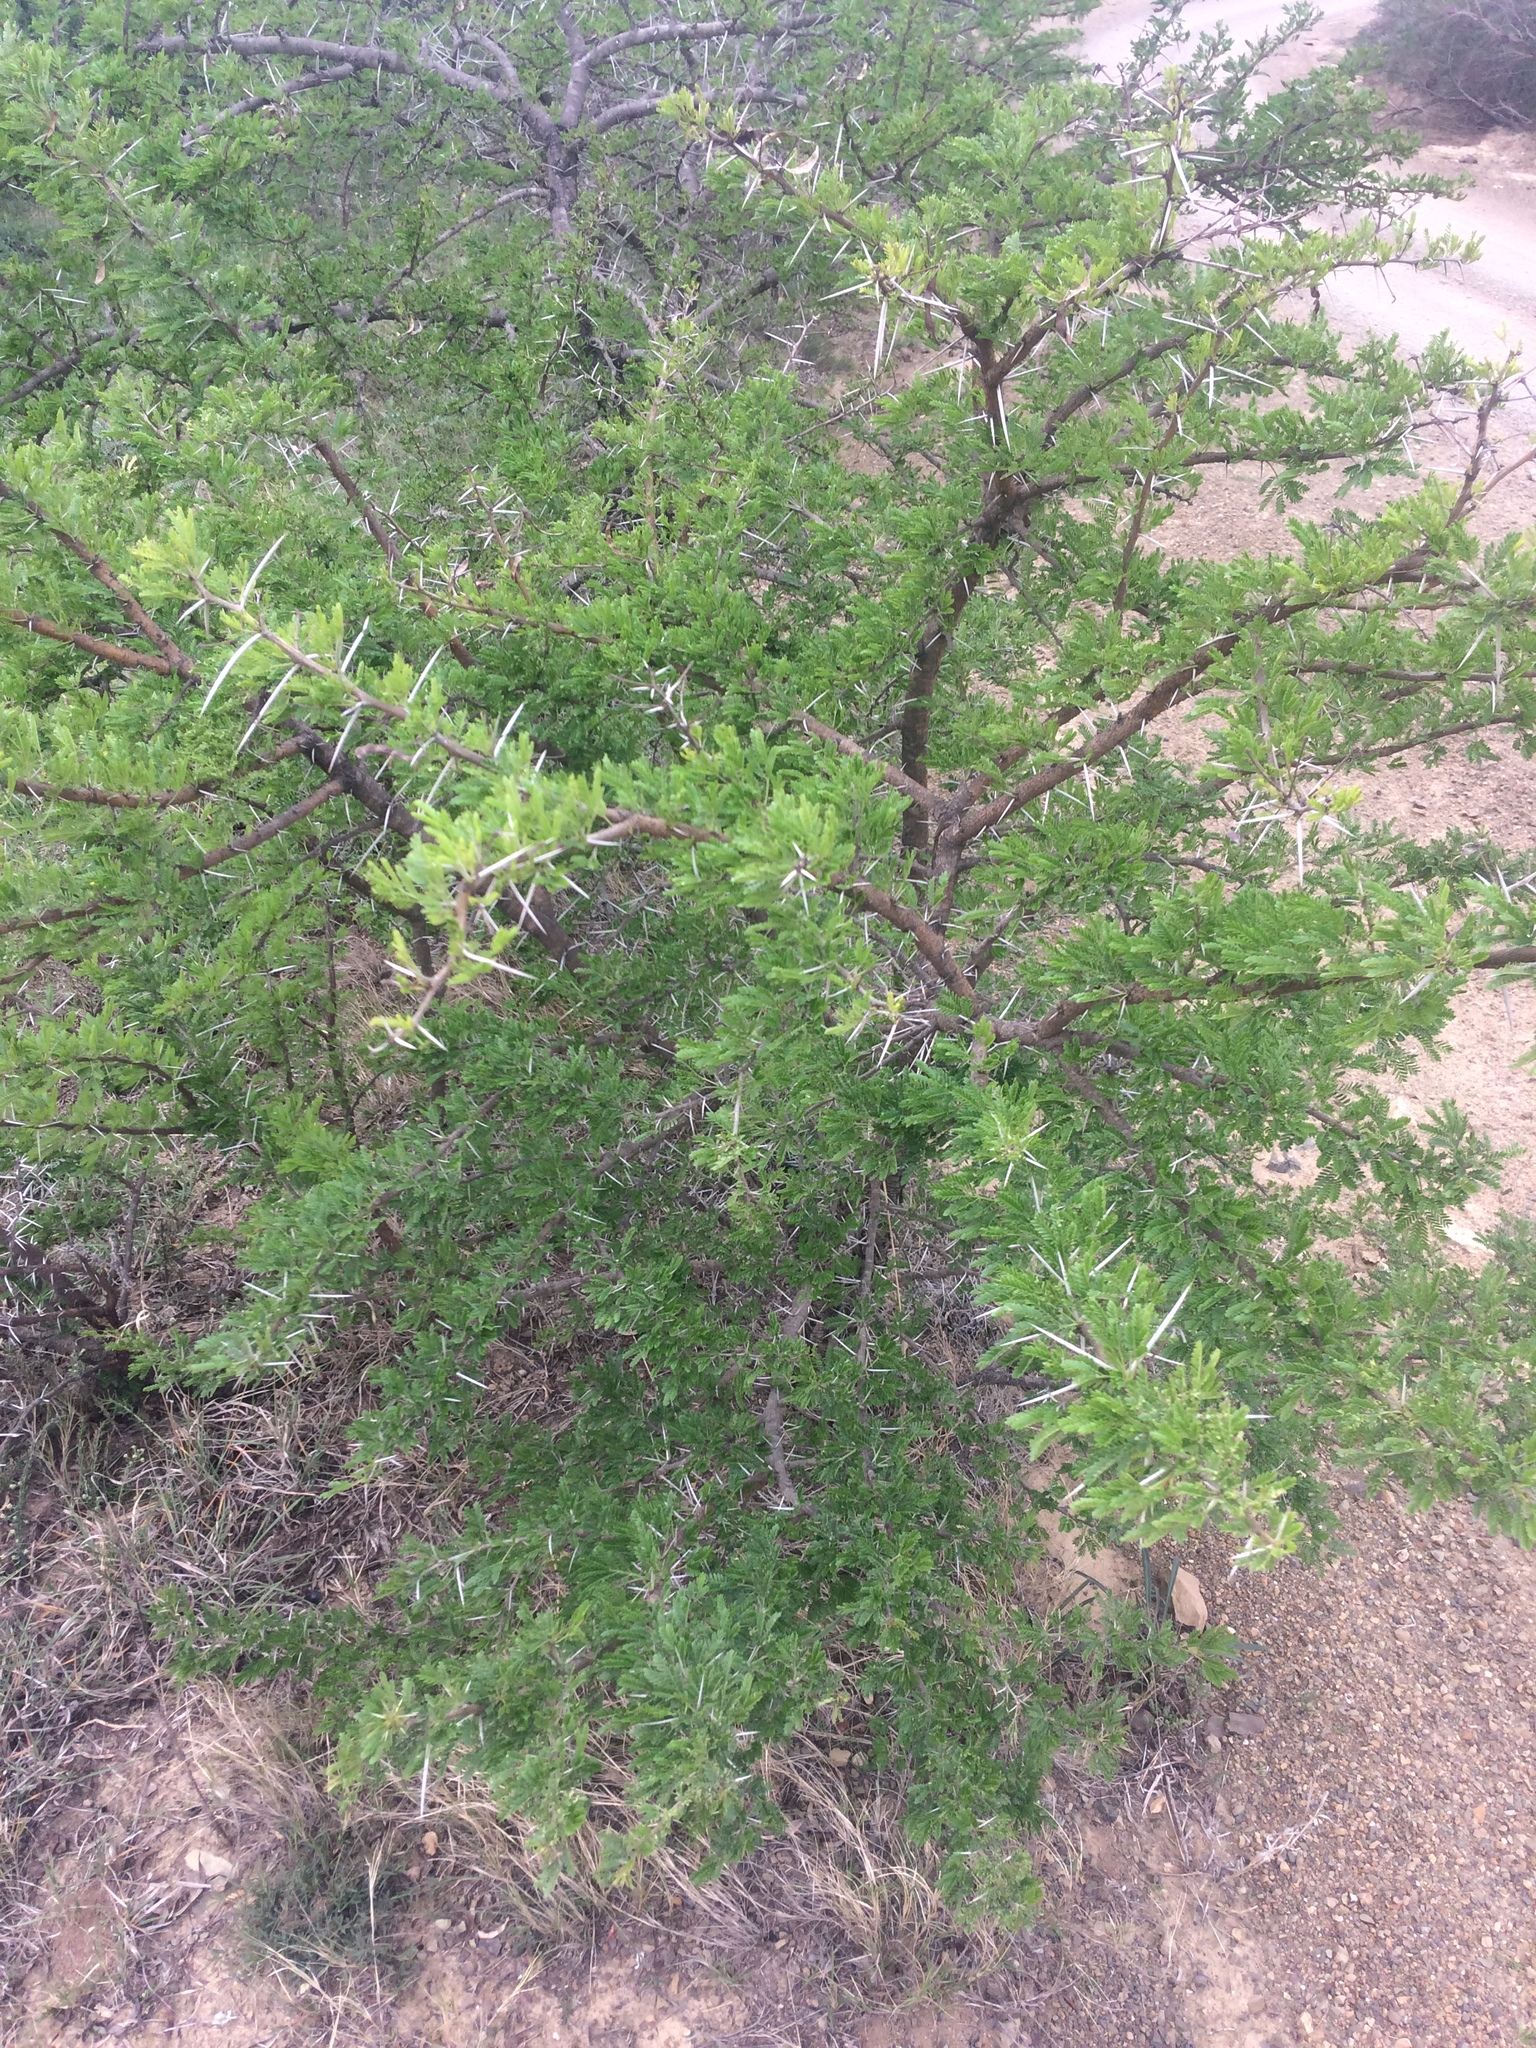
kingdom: Plantae
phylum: Tracheophyta
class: Magnoliopsida
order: Fabales
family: Fabaceae
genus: Vachellia
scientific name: Vachellia karroo
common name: Sweet thorn
